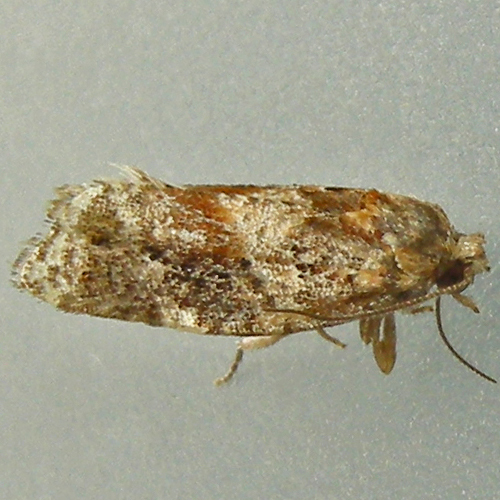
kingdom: Animalia
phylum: Arthropoda
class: Insecta
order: Lepidoptera
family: Tortricidae
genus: Argyrotaenia
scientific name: Argyrotaenia velutinana
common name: Red-banded leafroller moth
